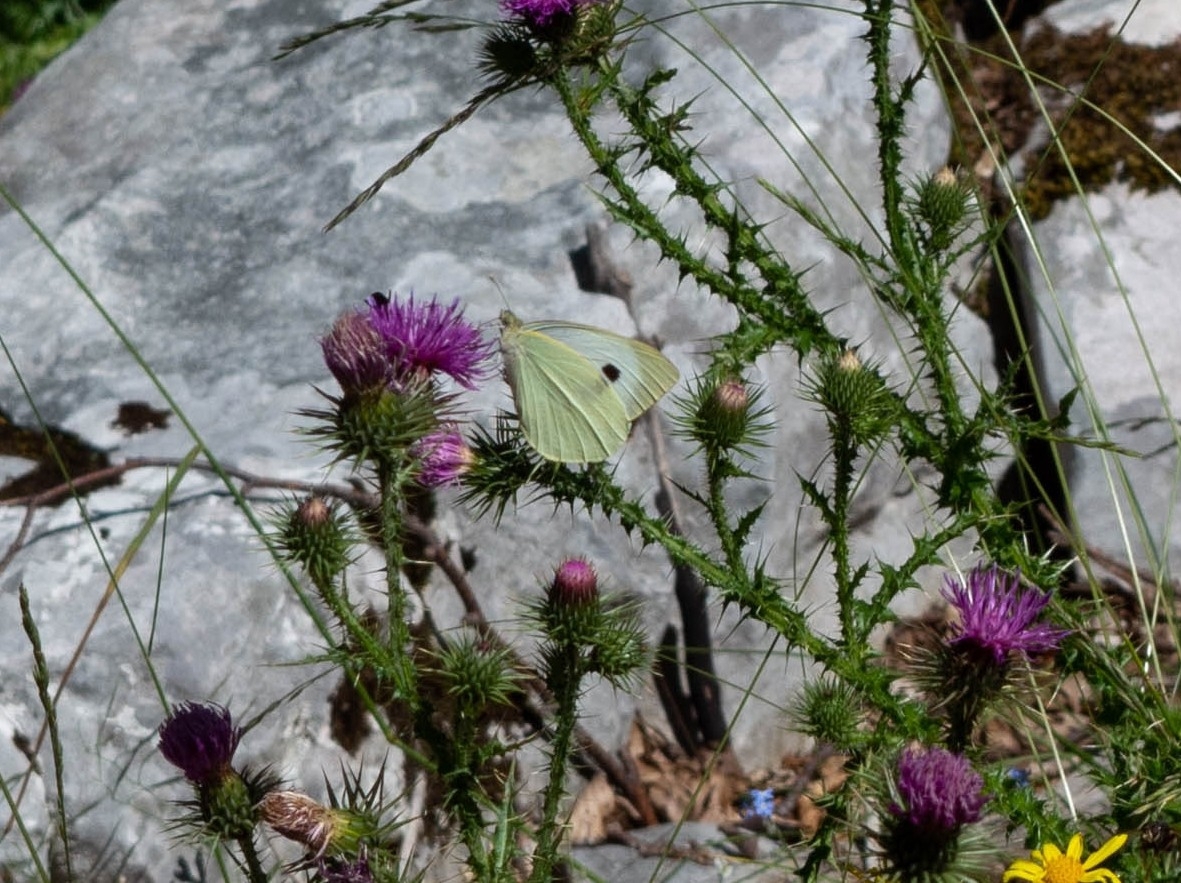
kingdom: Animalia
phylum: Arthropoda
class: Insecta
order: Lepidoptera
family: Pieridae
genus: Pieris
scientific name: Pieris brassicae
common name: Large white
